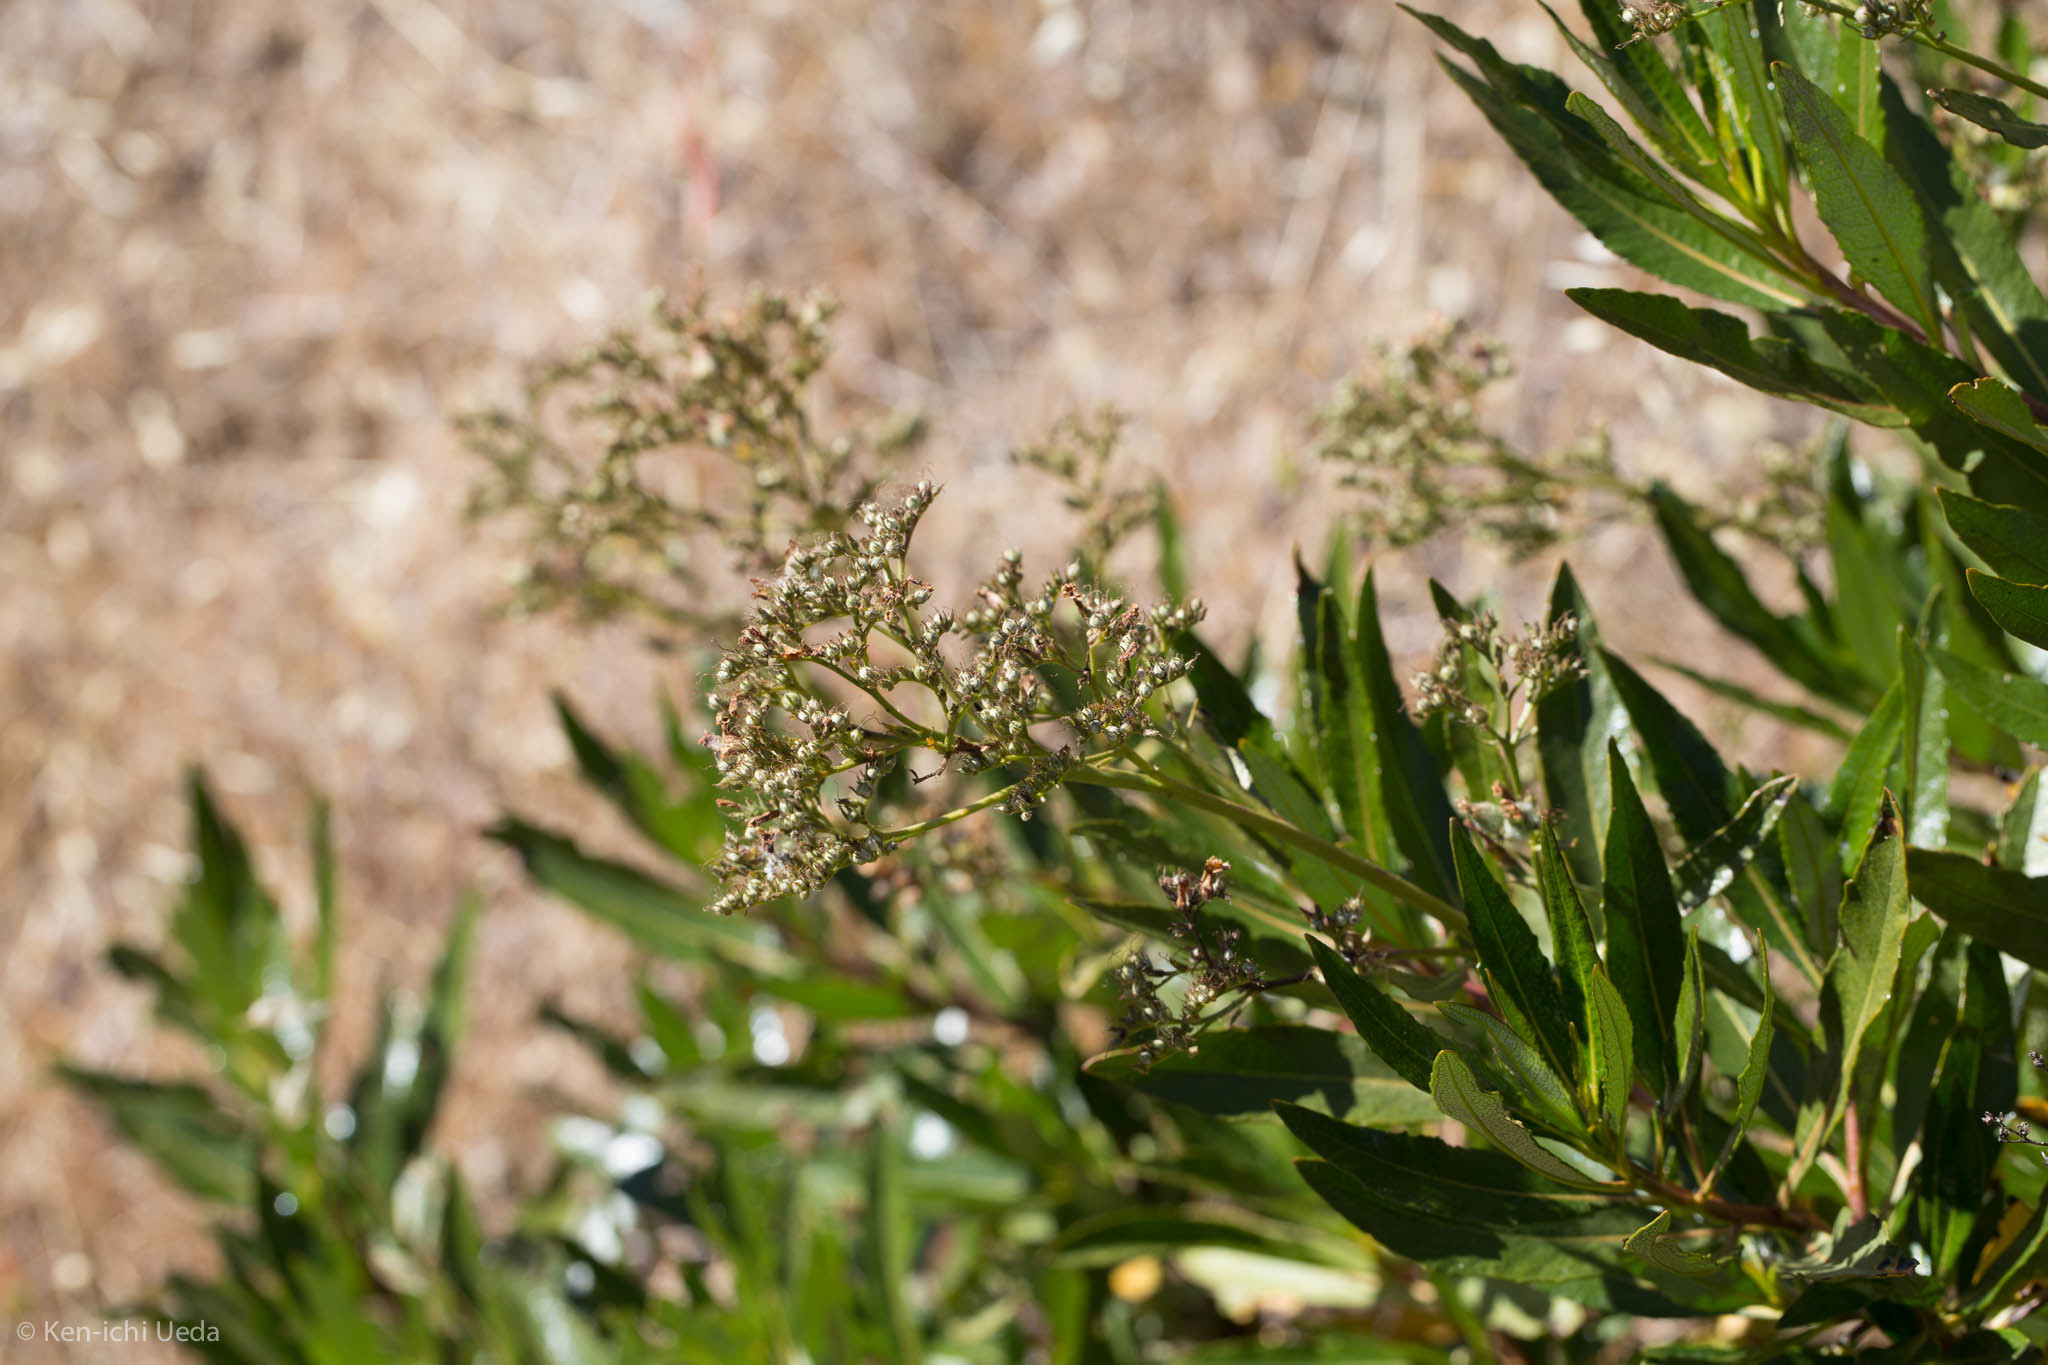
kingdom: Plantae
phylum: Tracheophyta
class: Magnoliopsida
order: Boraginales
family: Namaceae
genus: Eriodictyon
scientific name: Eriodictyon californicum
